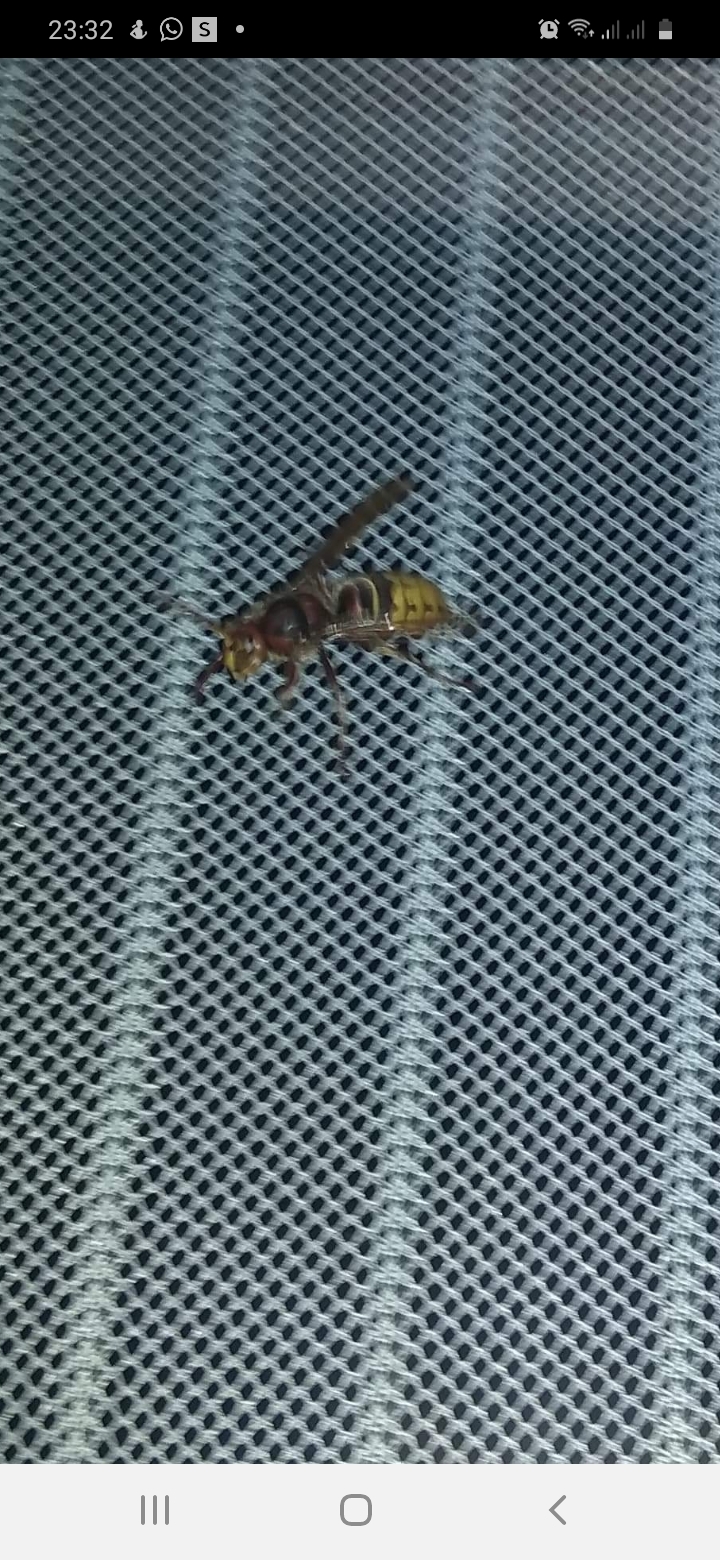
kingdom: Animalia
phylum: Arthropoda
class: Insecta
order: Hymenoptera
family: Vespidae
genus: Vespa
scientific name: Vespa crabro
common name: Hornet
